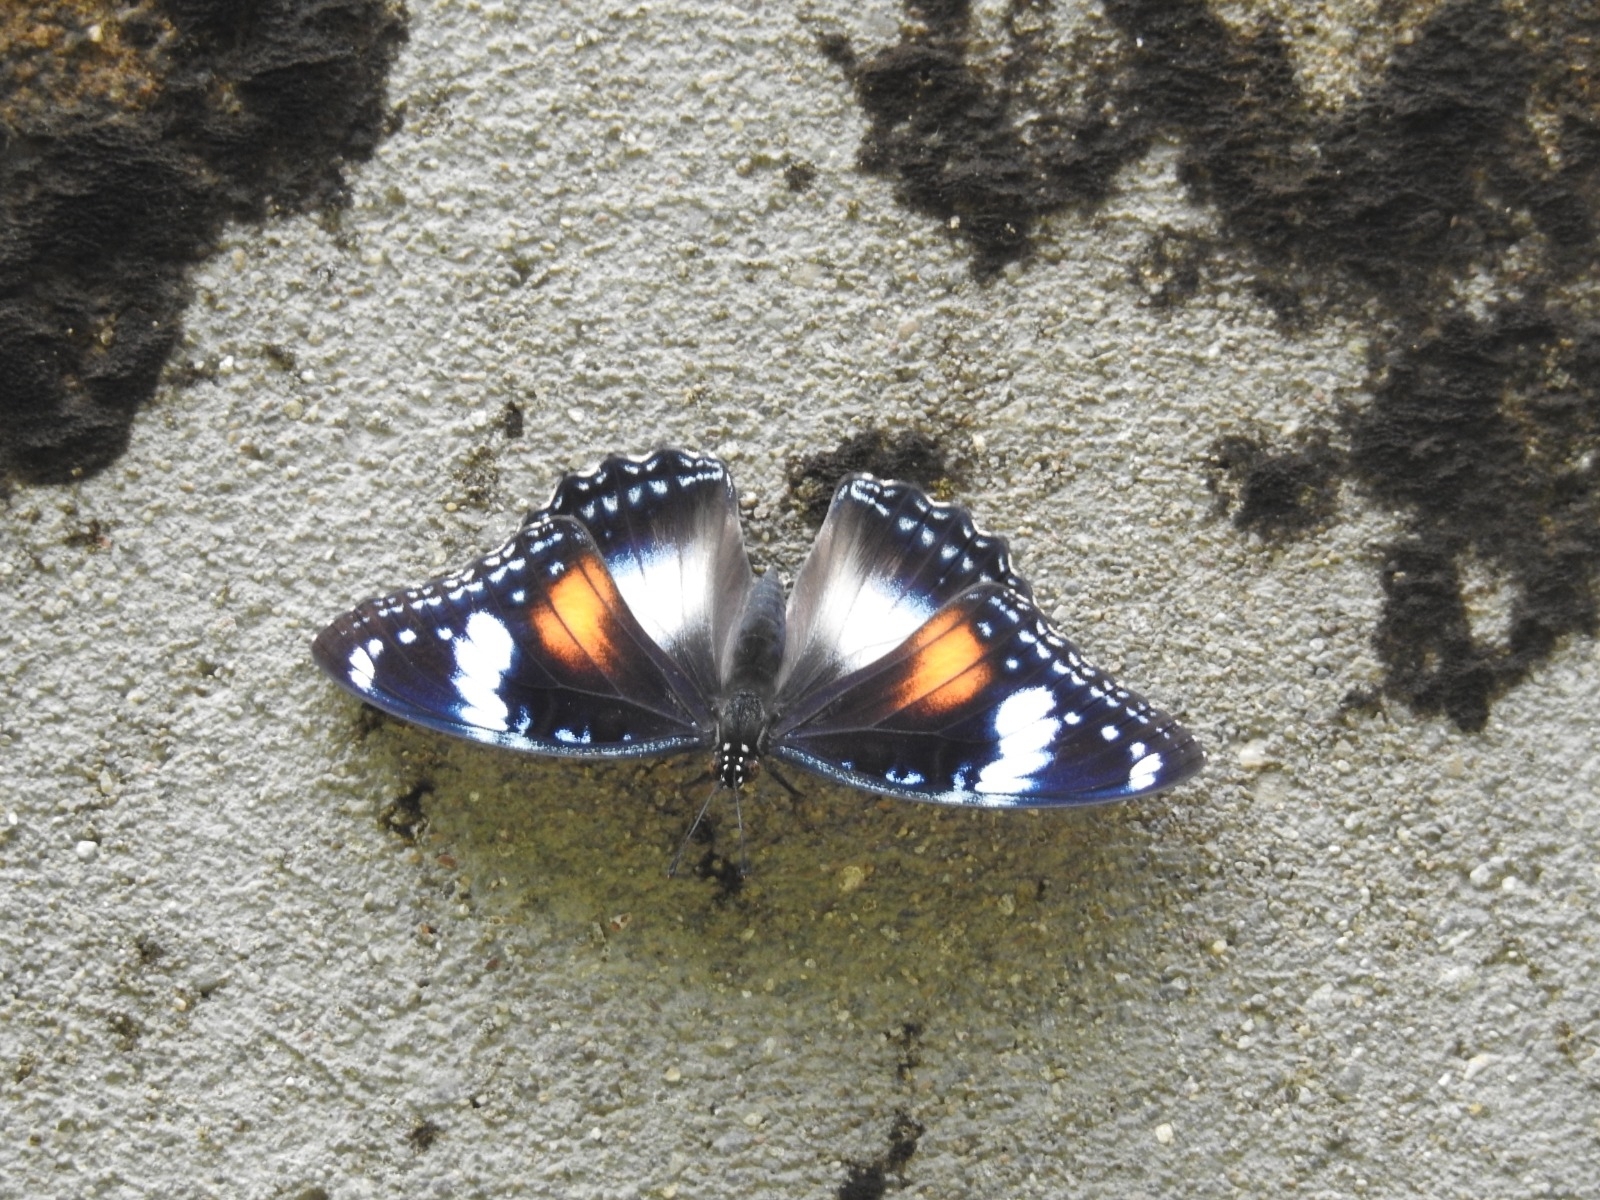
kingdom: Animalia
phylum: Arthropoda
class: Insecta
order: Lepidoptera
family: Nymphalidae
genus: Hypolimnas
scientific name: Hypolimnas bolina
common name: Great eggfly
